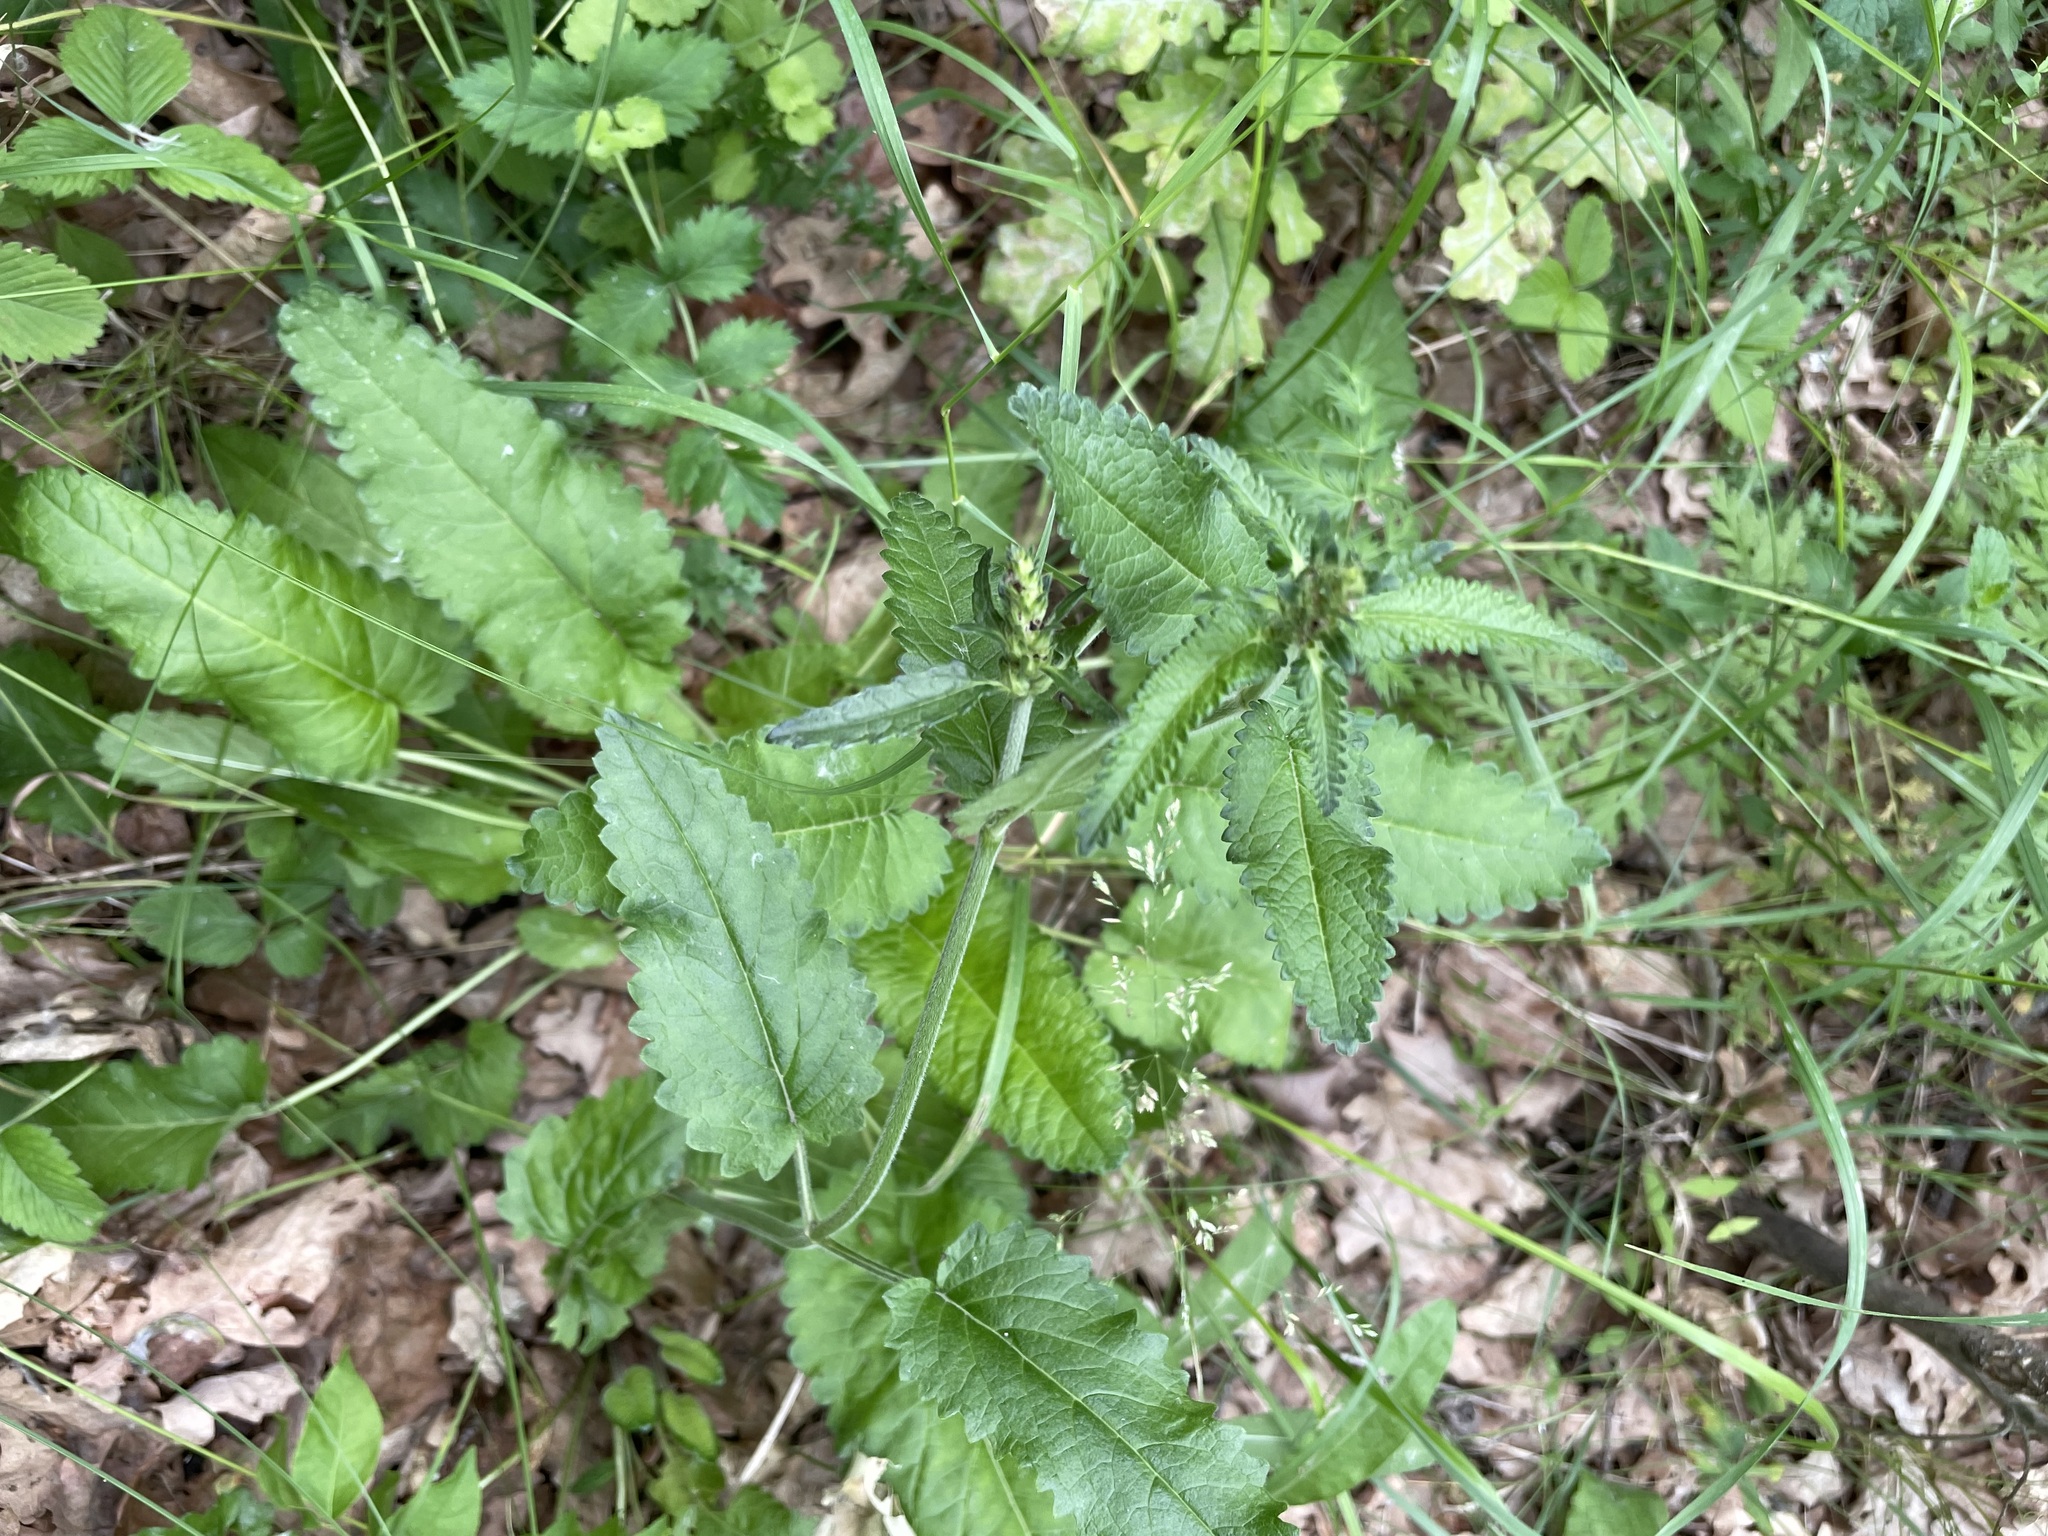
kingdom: Plantae
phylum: Tracheophyta
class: Magnoliopsida
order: Lamiales
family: Lamiaceae
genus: Betonica
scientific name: Betonica officinalis
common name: Bishop's-wort
